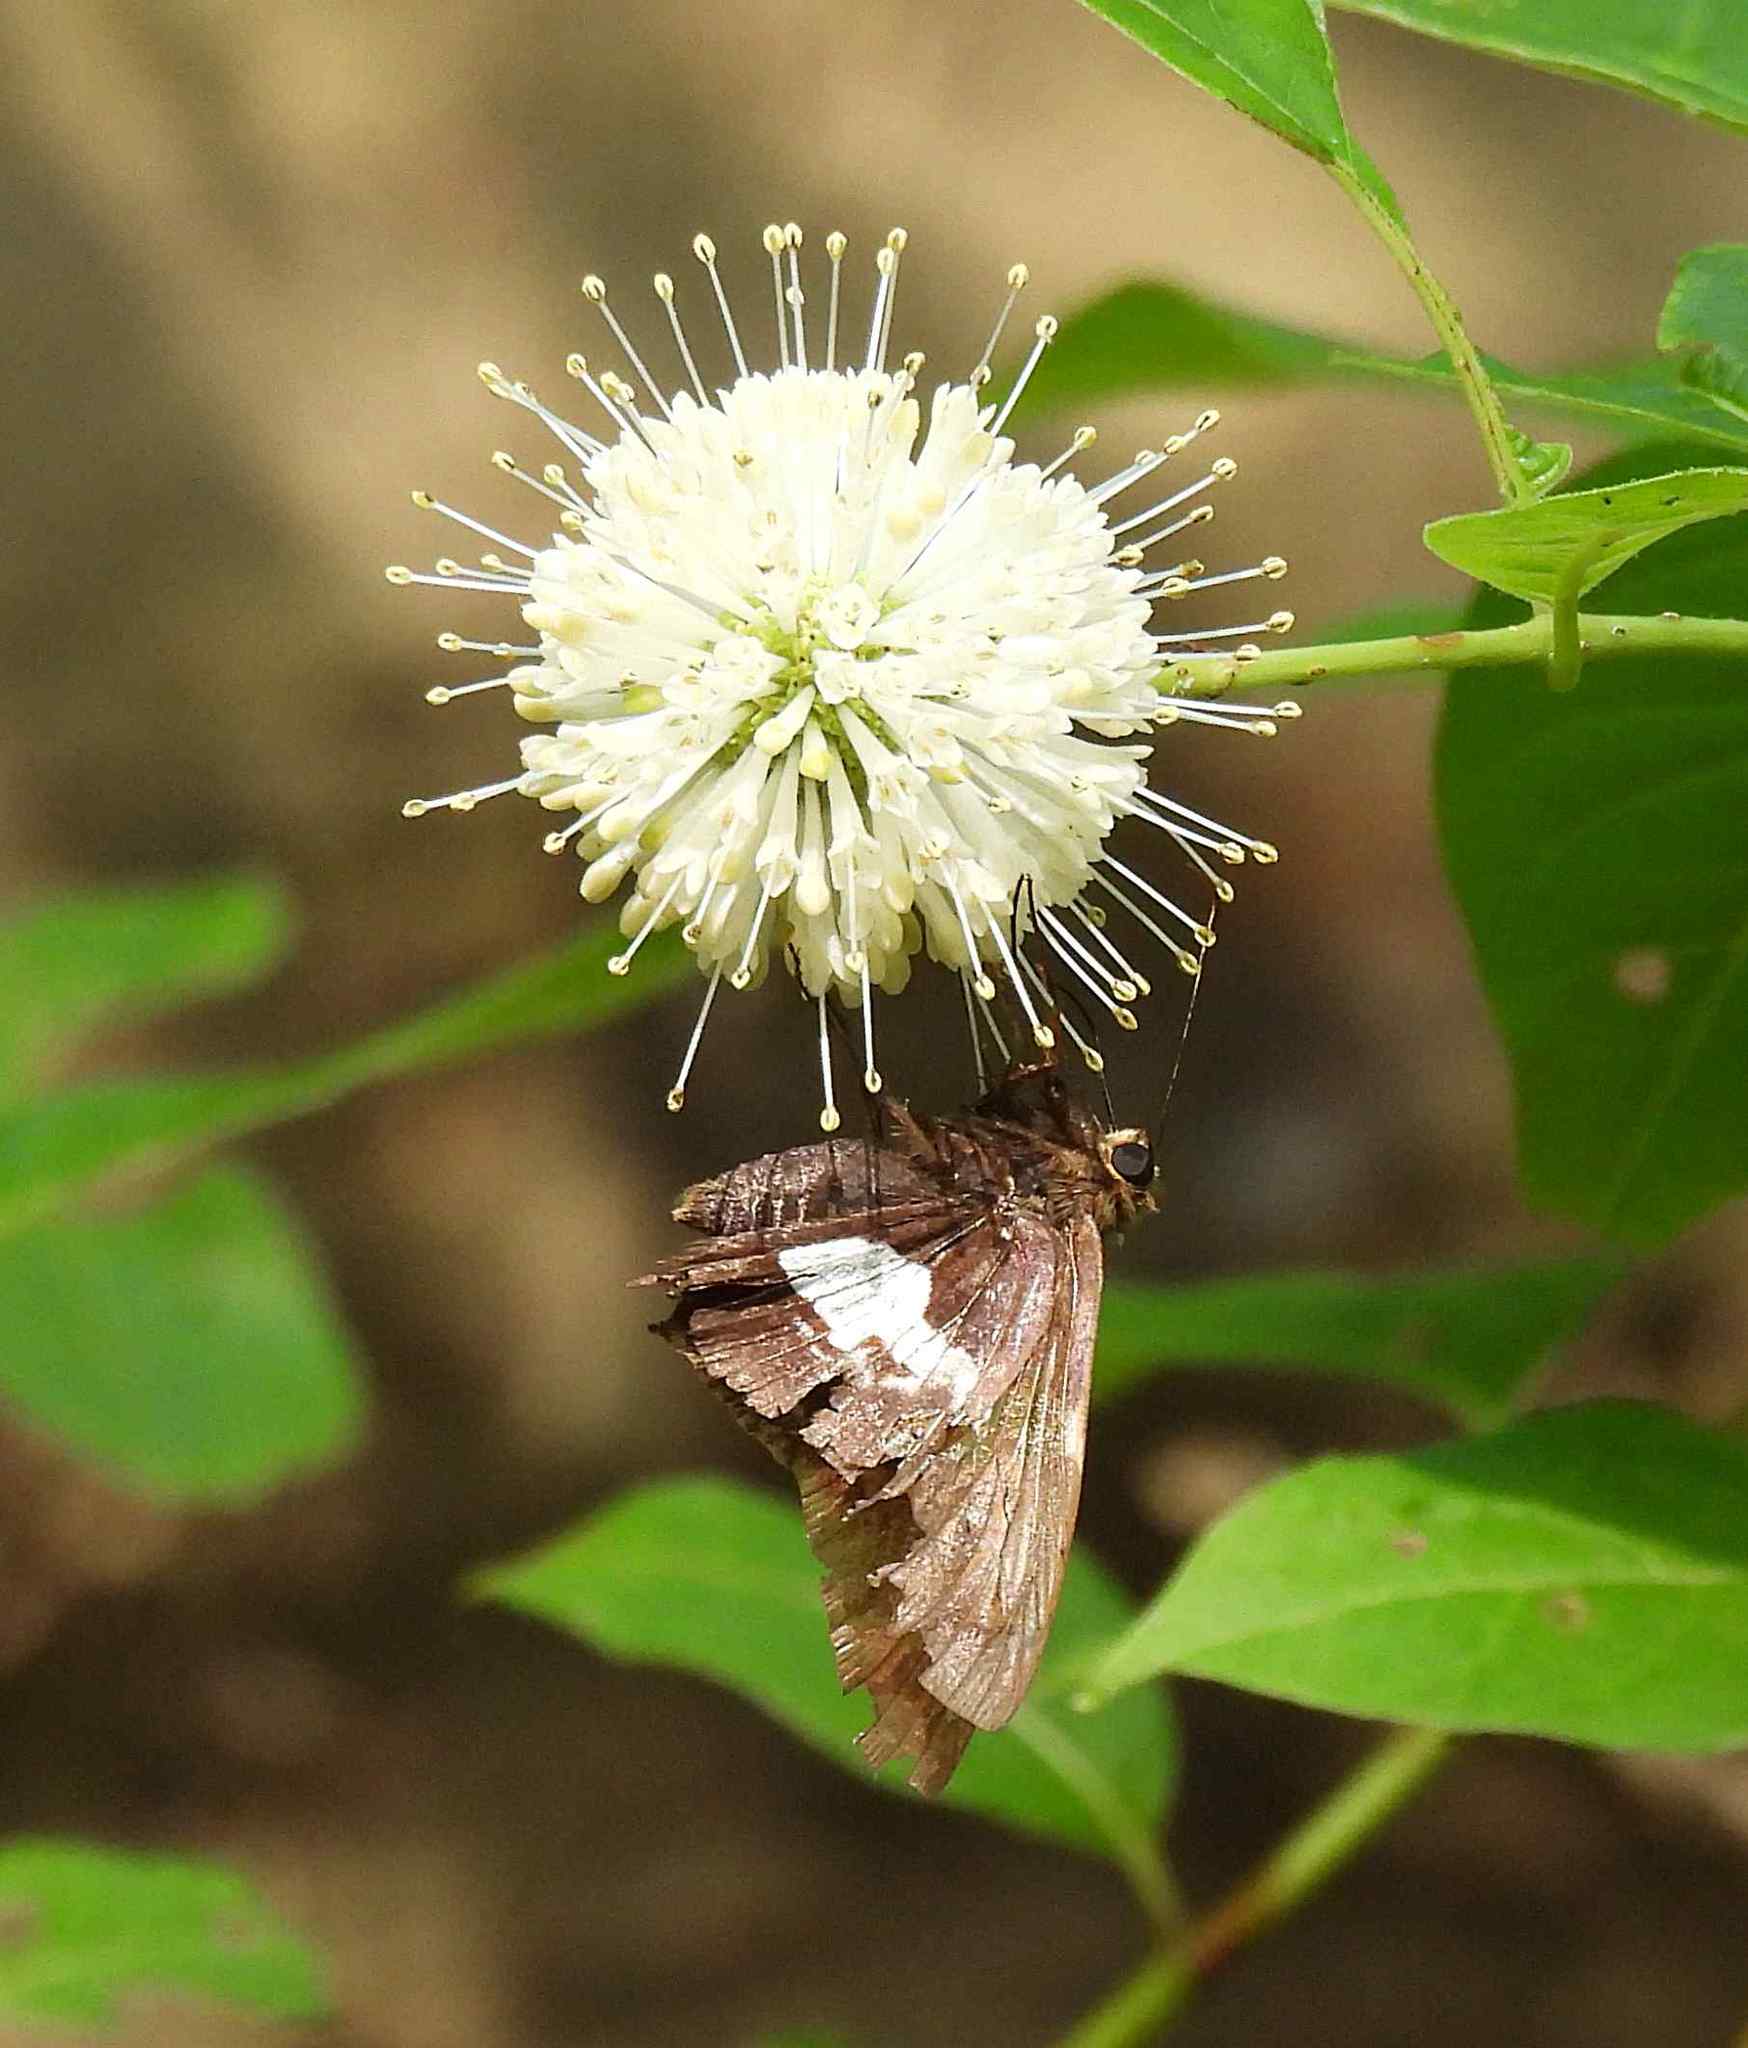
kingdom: Animalia
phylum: Arthropoda
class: Insecta
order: Lepidoptera
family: Hesperiidae
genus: Epargyreus
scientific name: Epargyreus clarus
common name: Silver-spotted skipper
